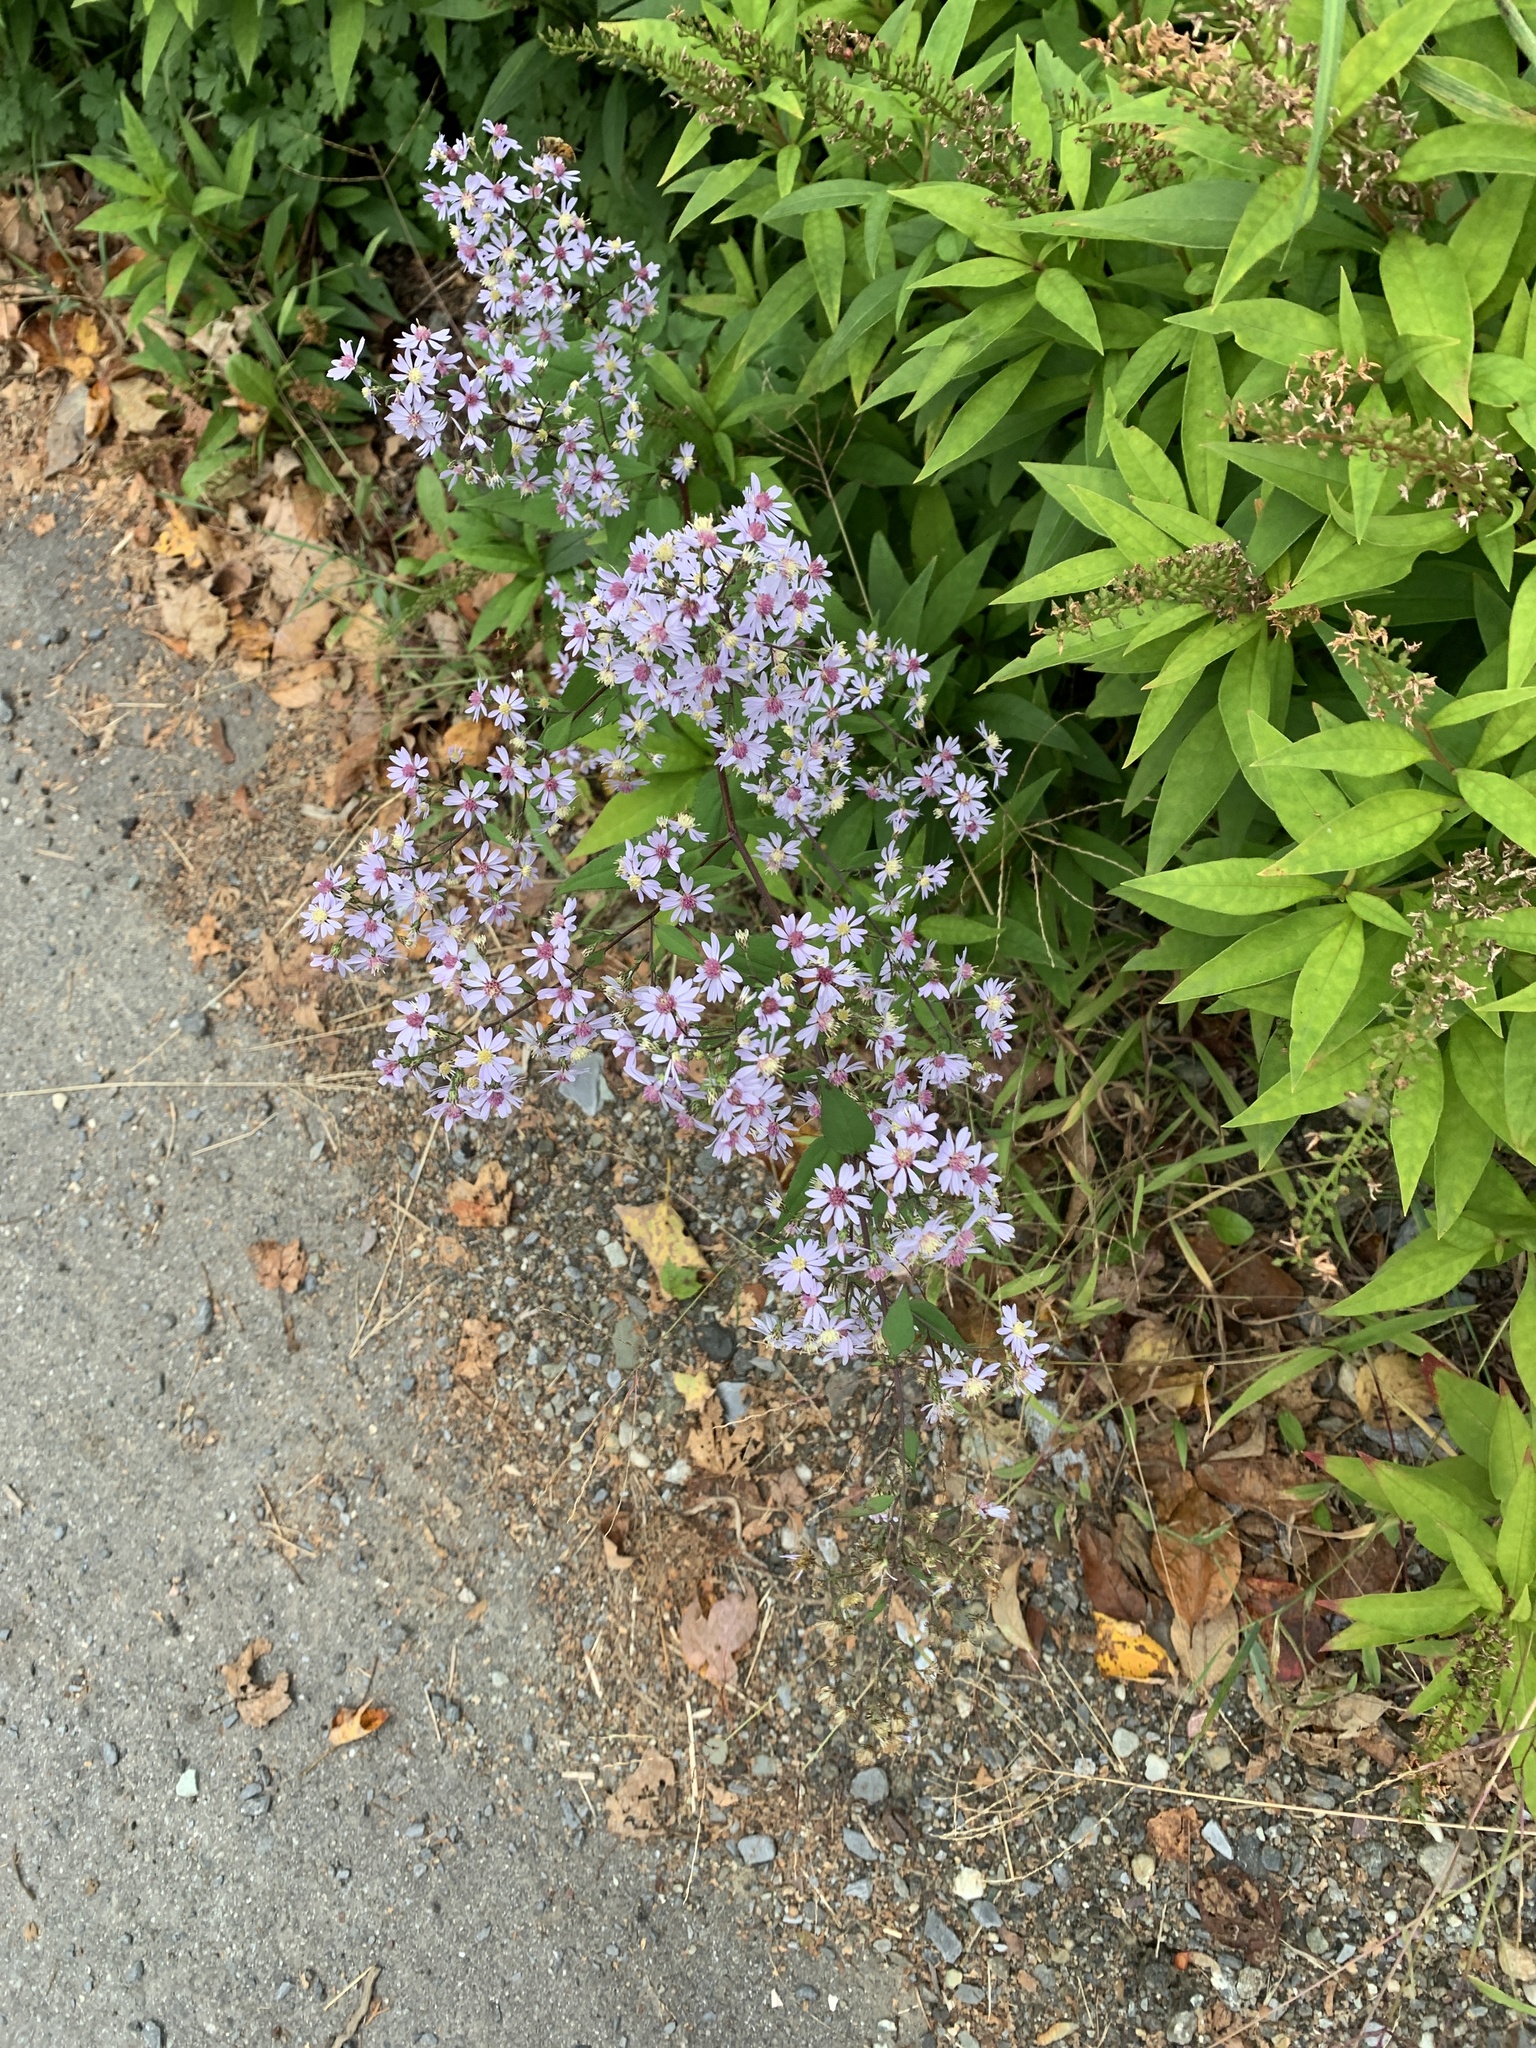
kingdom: Plantae
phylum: Tracheophyta
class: Magnoliopsida
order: Asterales
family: Asteraceae
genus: Symphyotrichum
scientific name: Symphyotrichum cordifolium
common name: Beeweed
